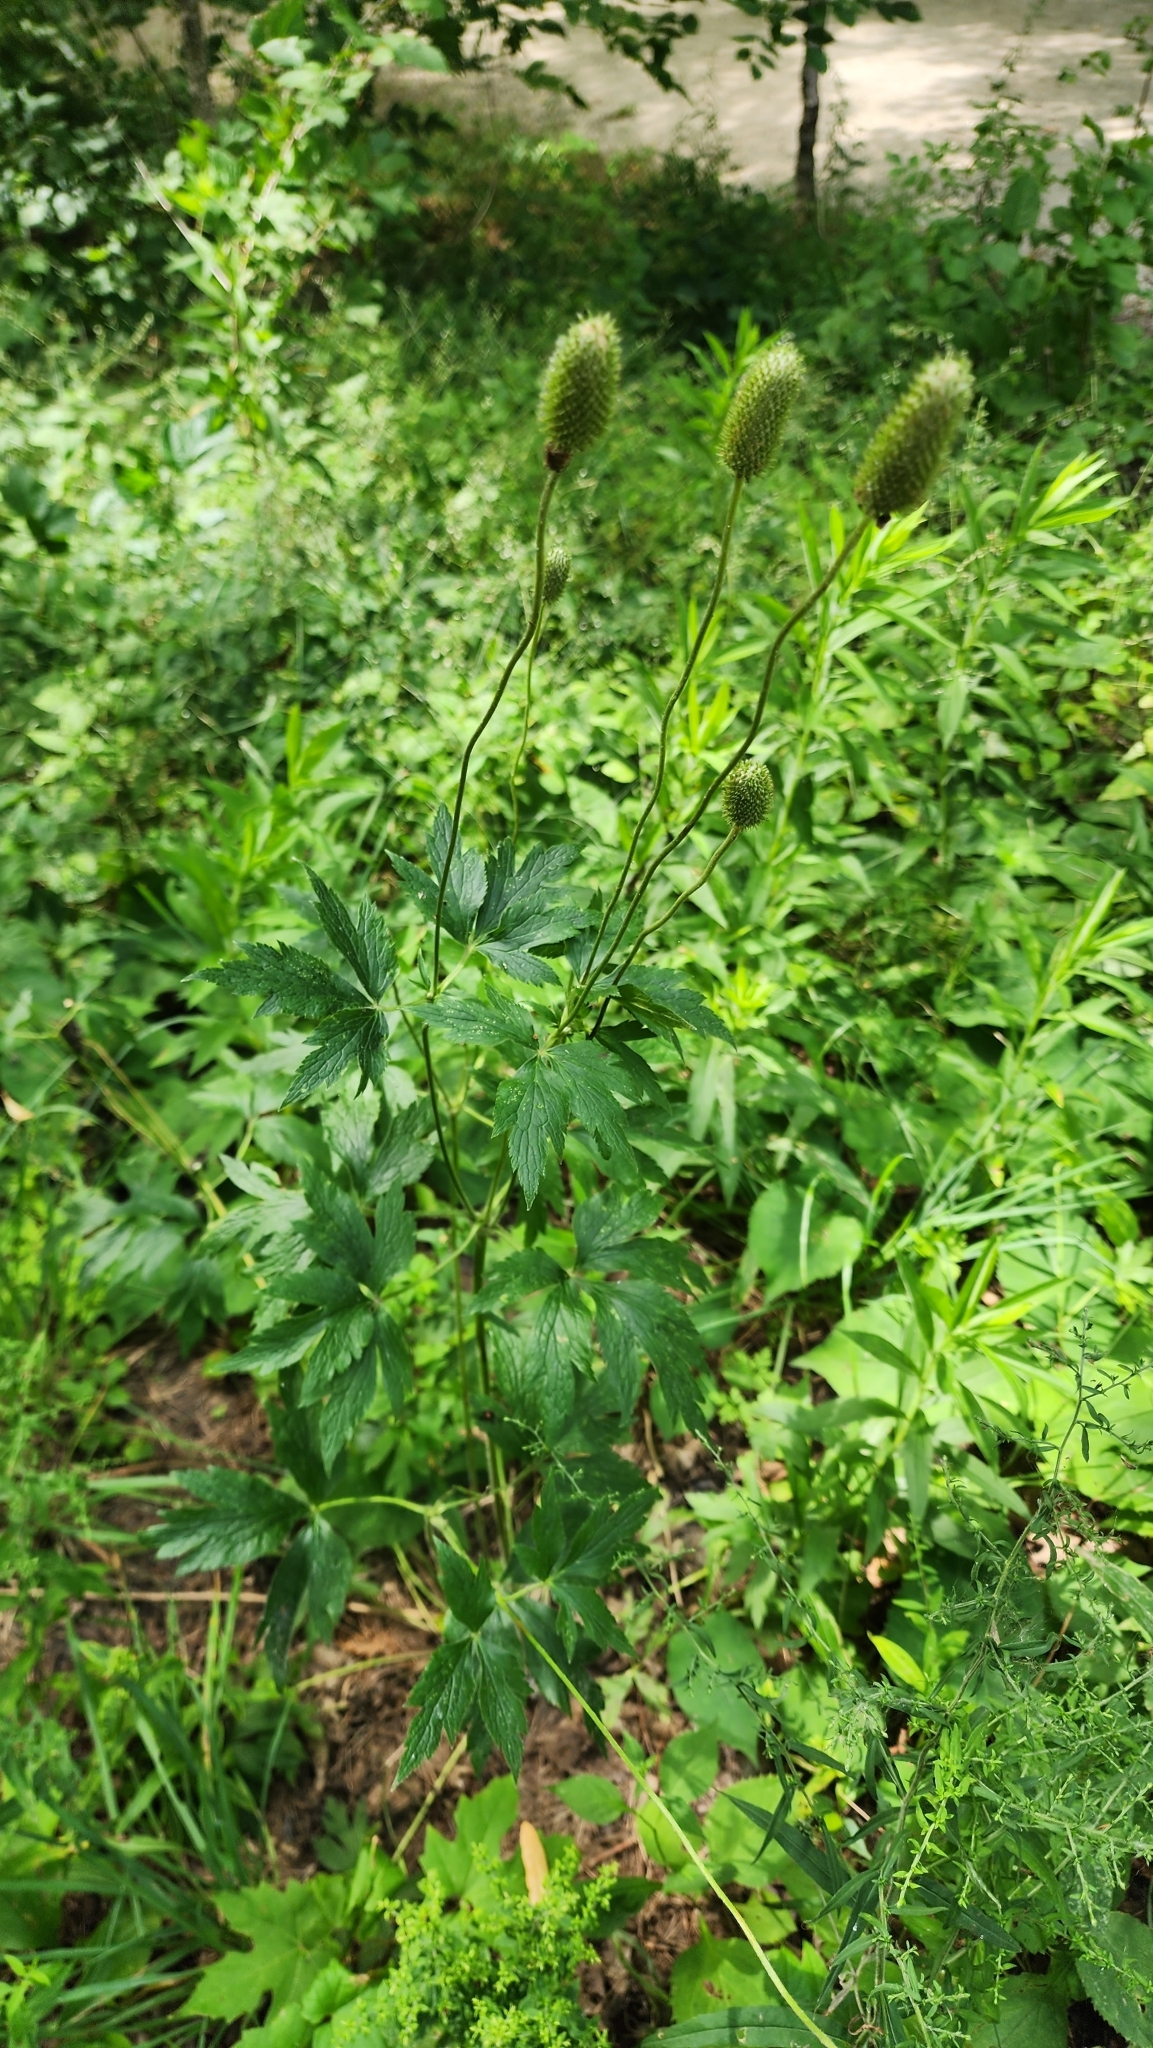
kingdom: Plantae
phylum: Tracheophyta
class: Magnoliopsida
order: Ranunculales
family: Ranunculaceae
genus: Anemone
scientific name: Anemone virginiana
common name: Tall anemone
